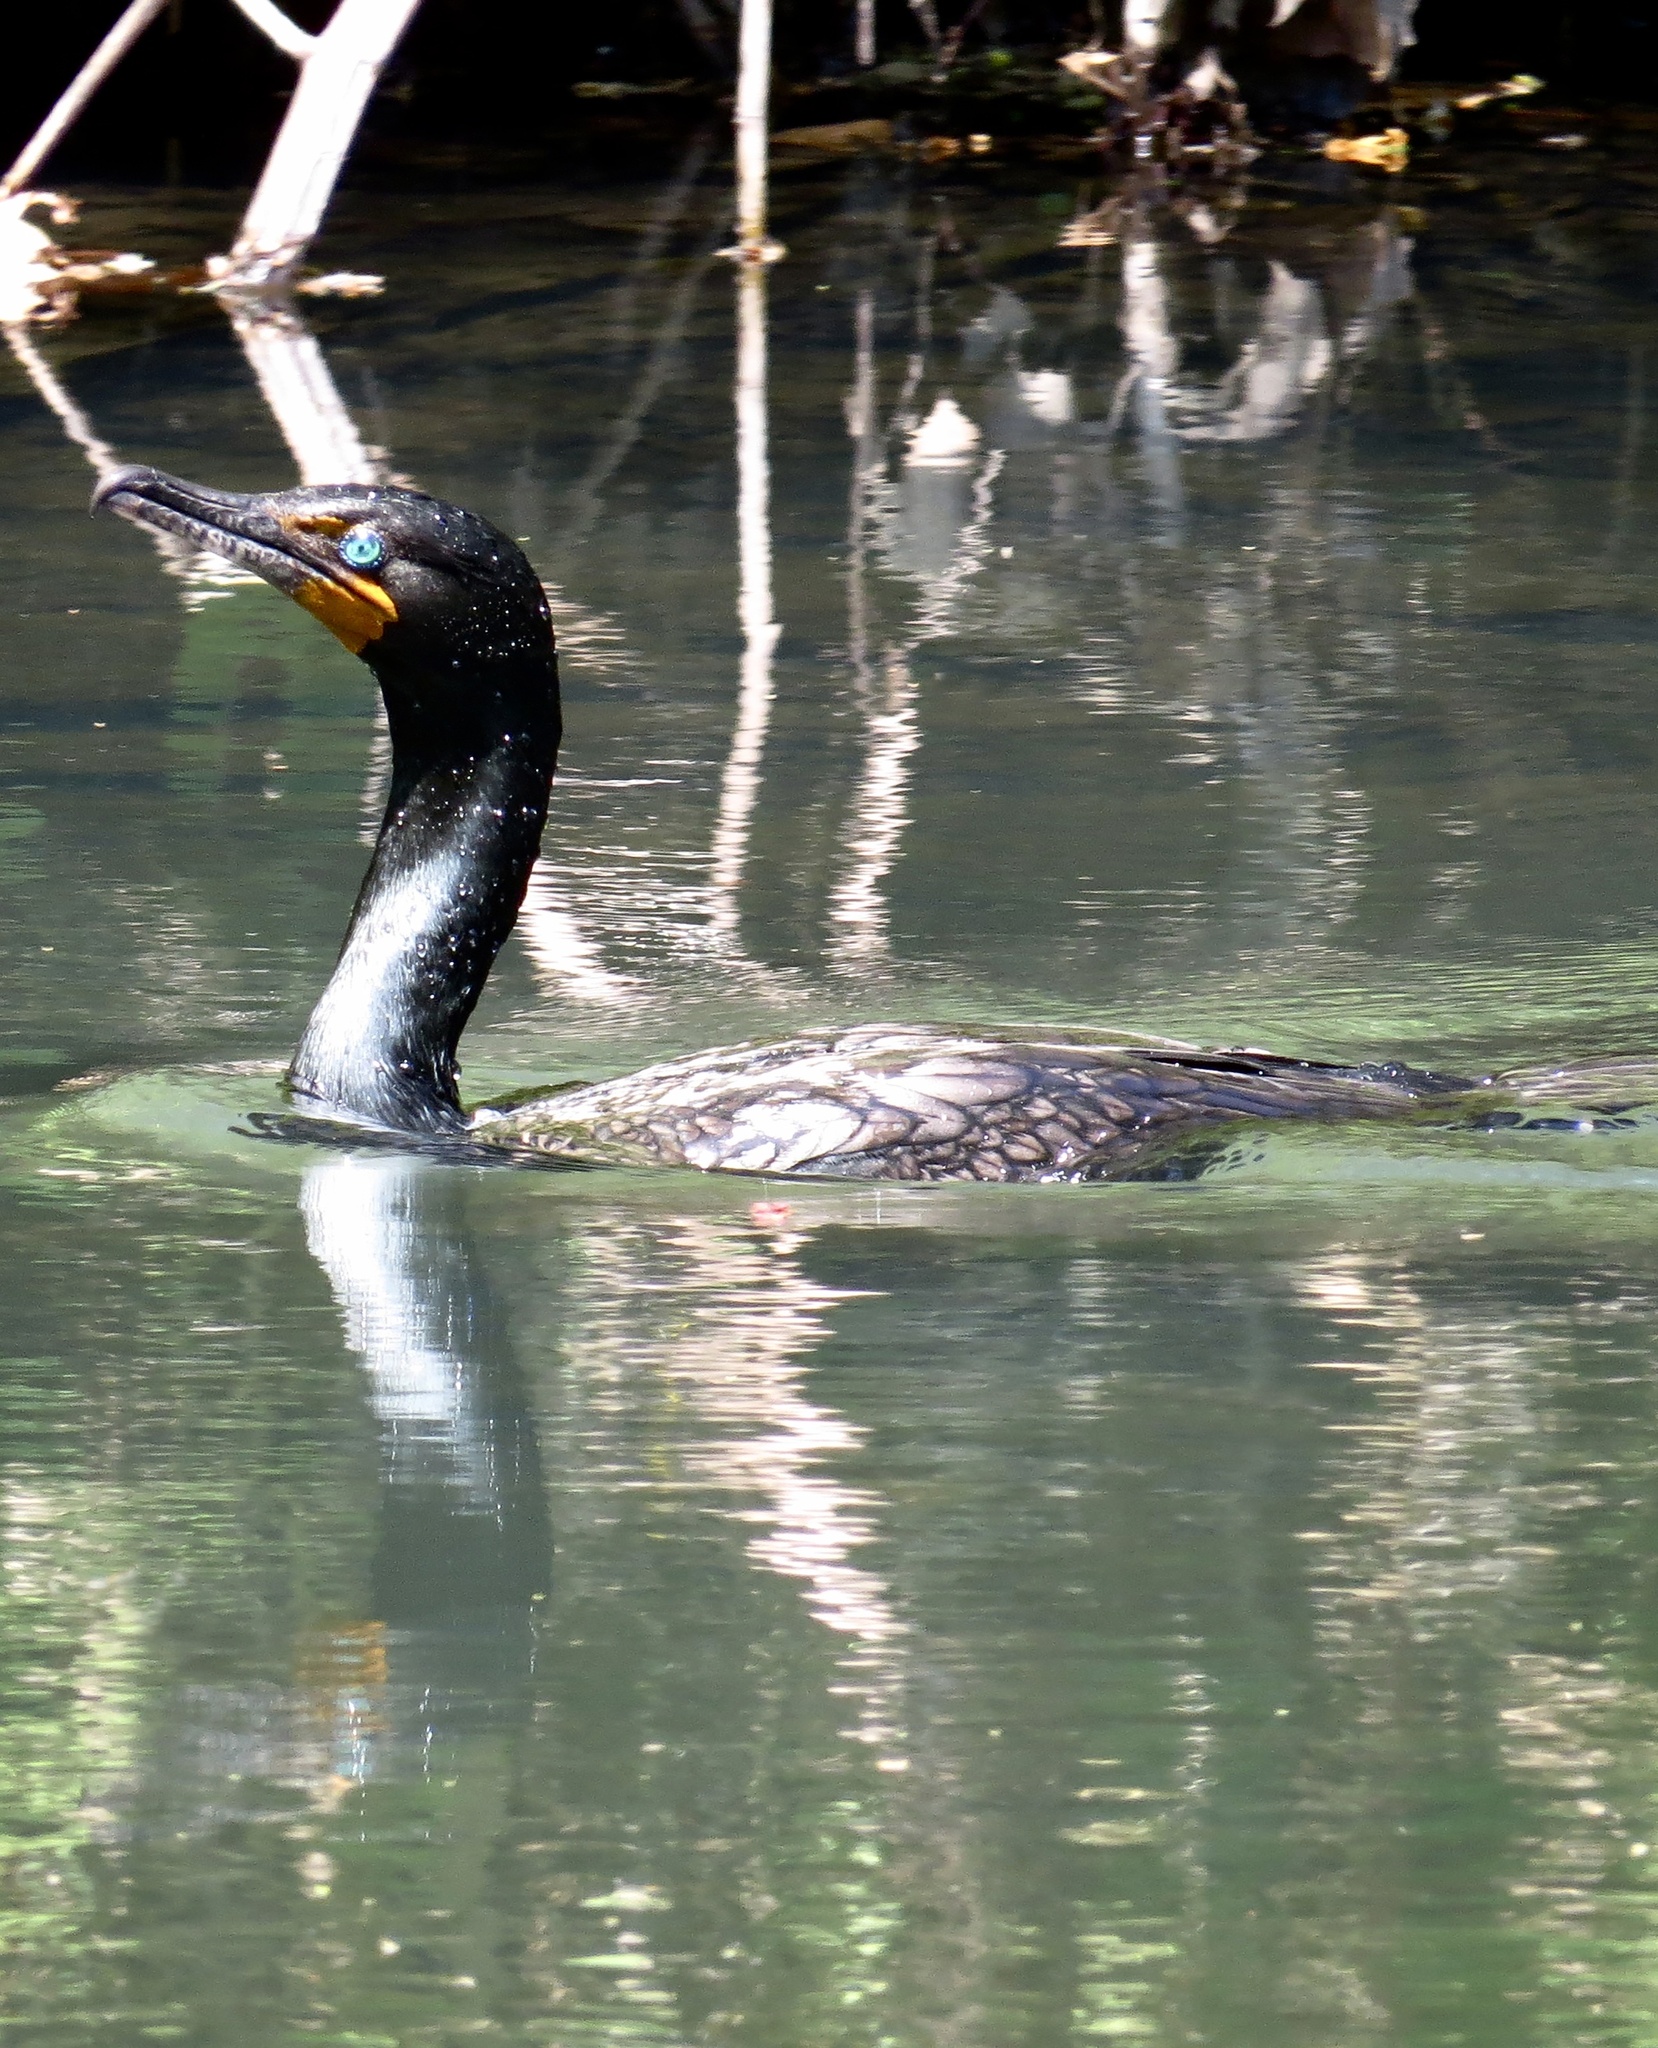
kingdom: Animalia
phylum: Chordata
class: Aves
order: Suliformes
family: Phalacrocoracidae
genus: Phalacrocorax
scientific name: Phalacrocorax auritus
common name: Double-crested cormorant
